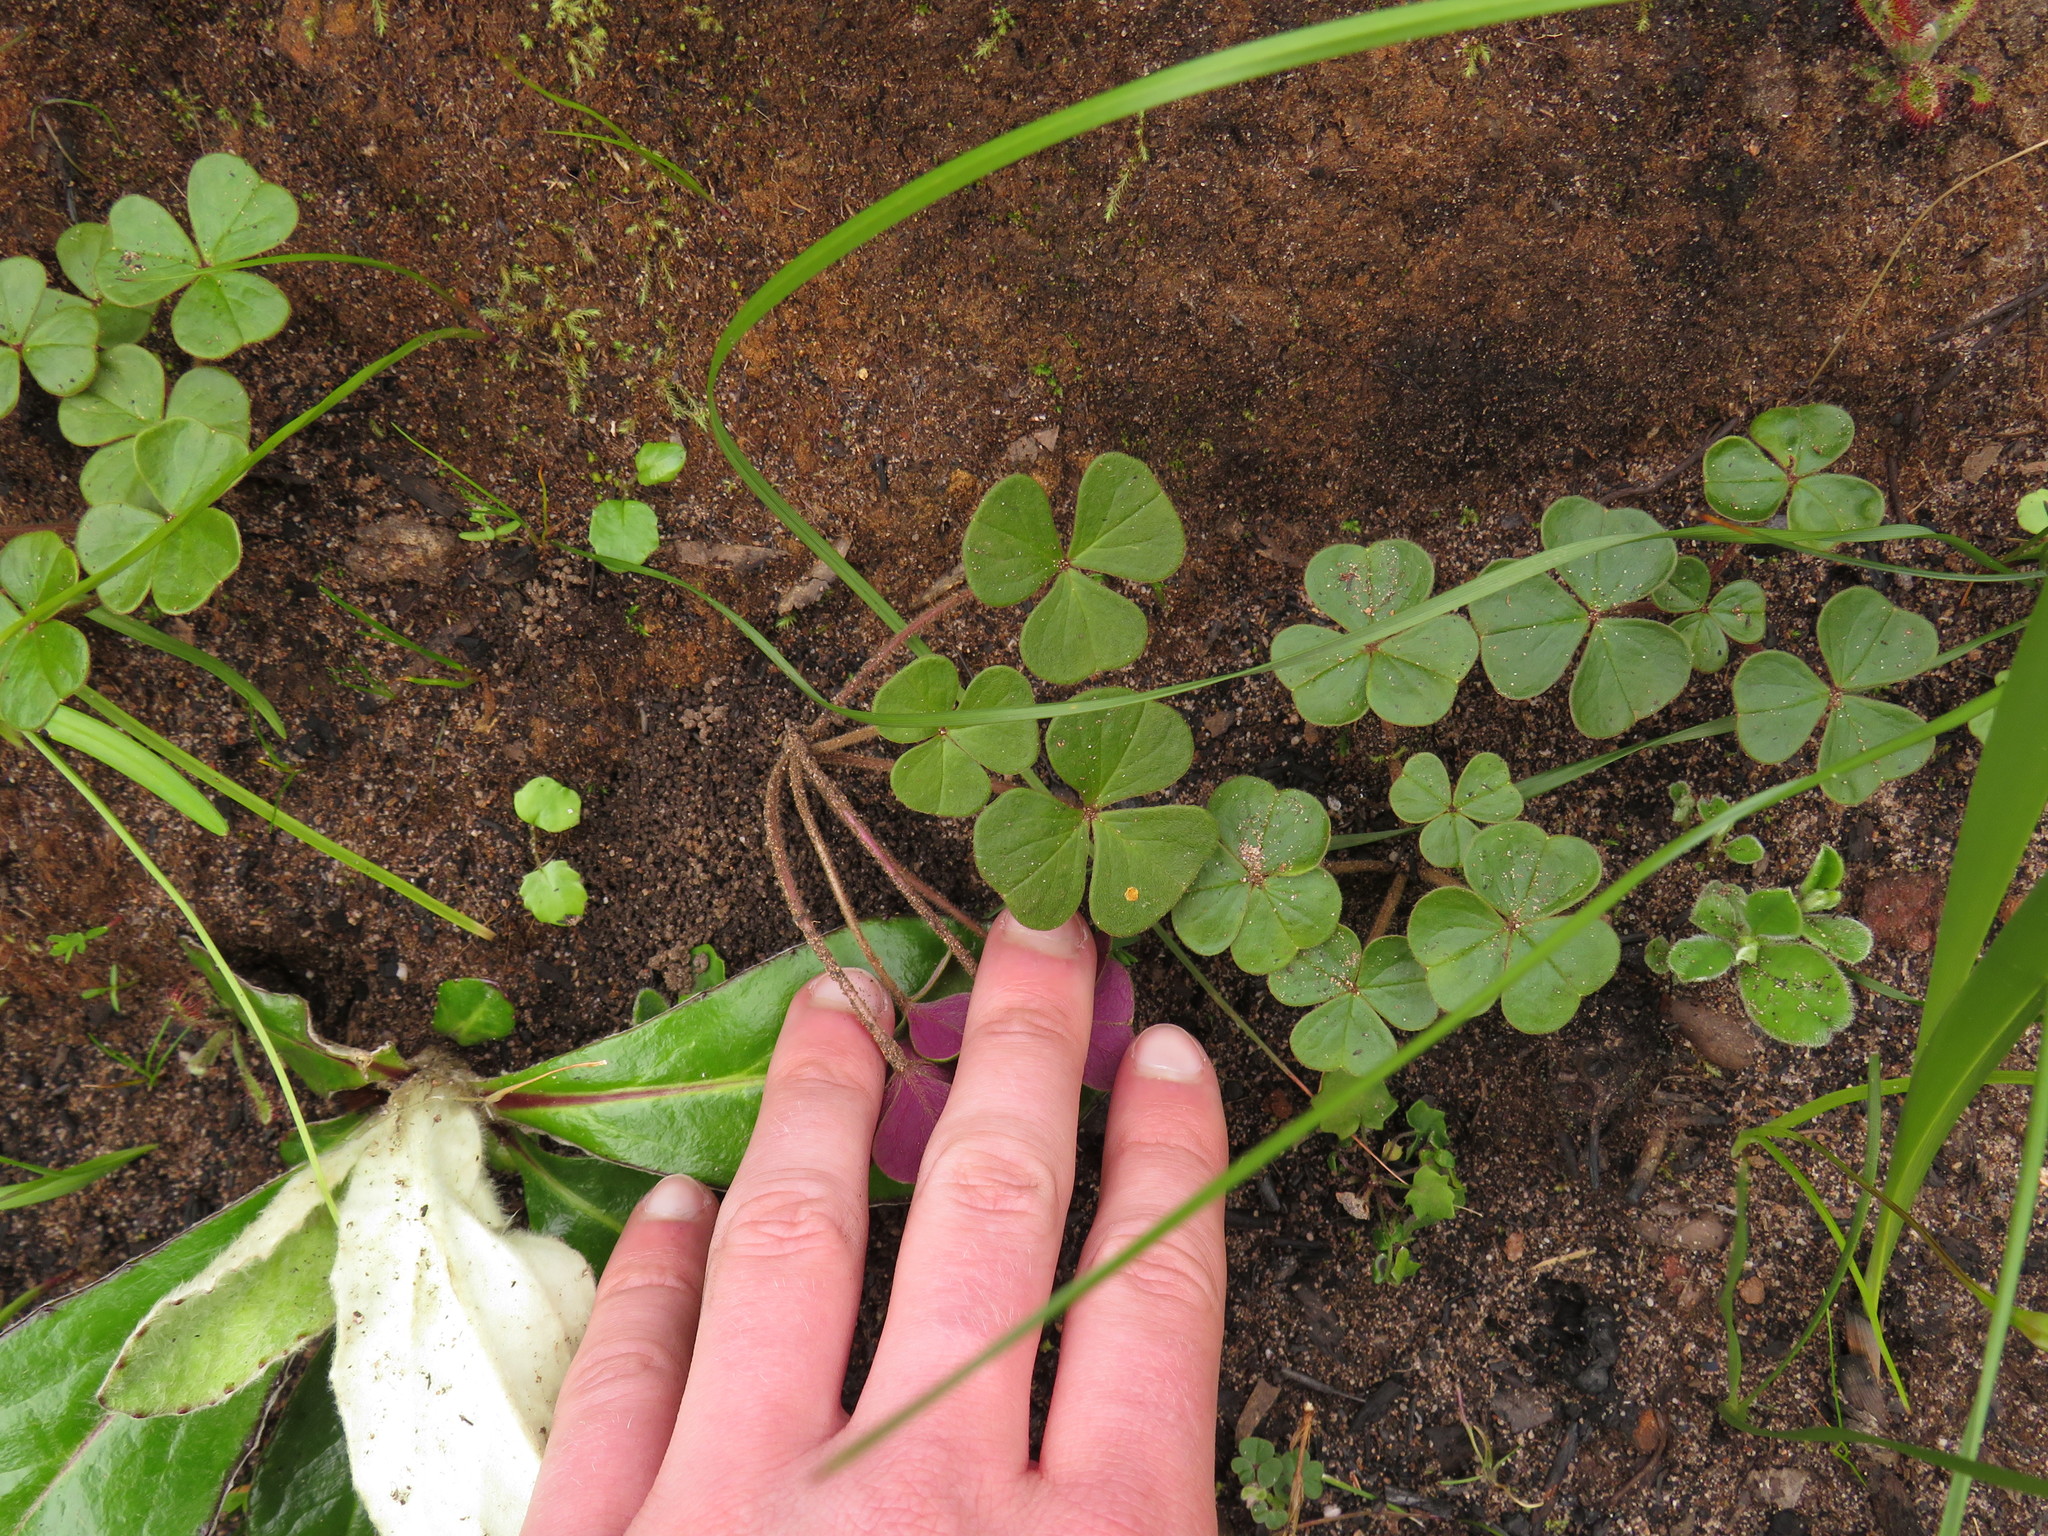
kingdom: Plantae
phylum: Tracheophyta
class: Magnoliopsida
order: Oxalidales
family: Oxalidaceae
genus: Oxalis
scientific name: Oxalis truncatula
